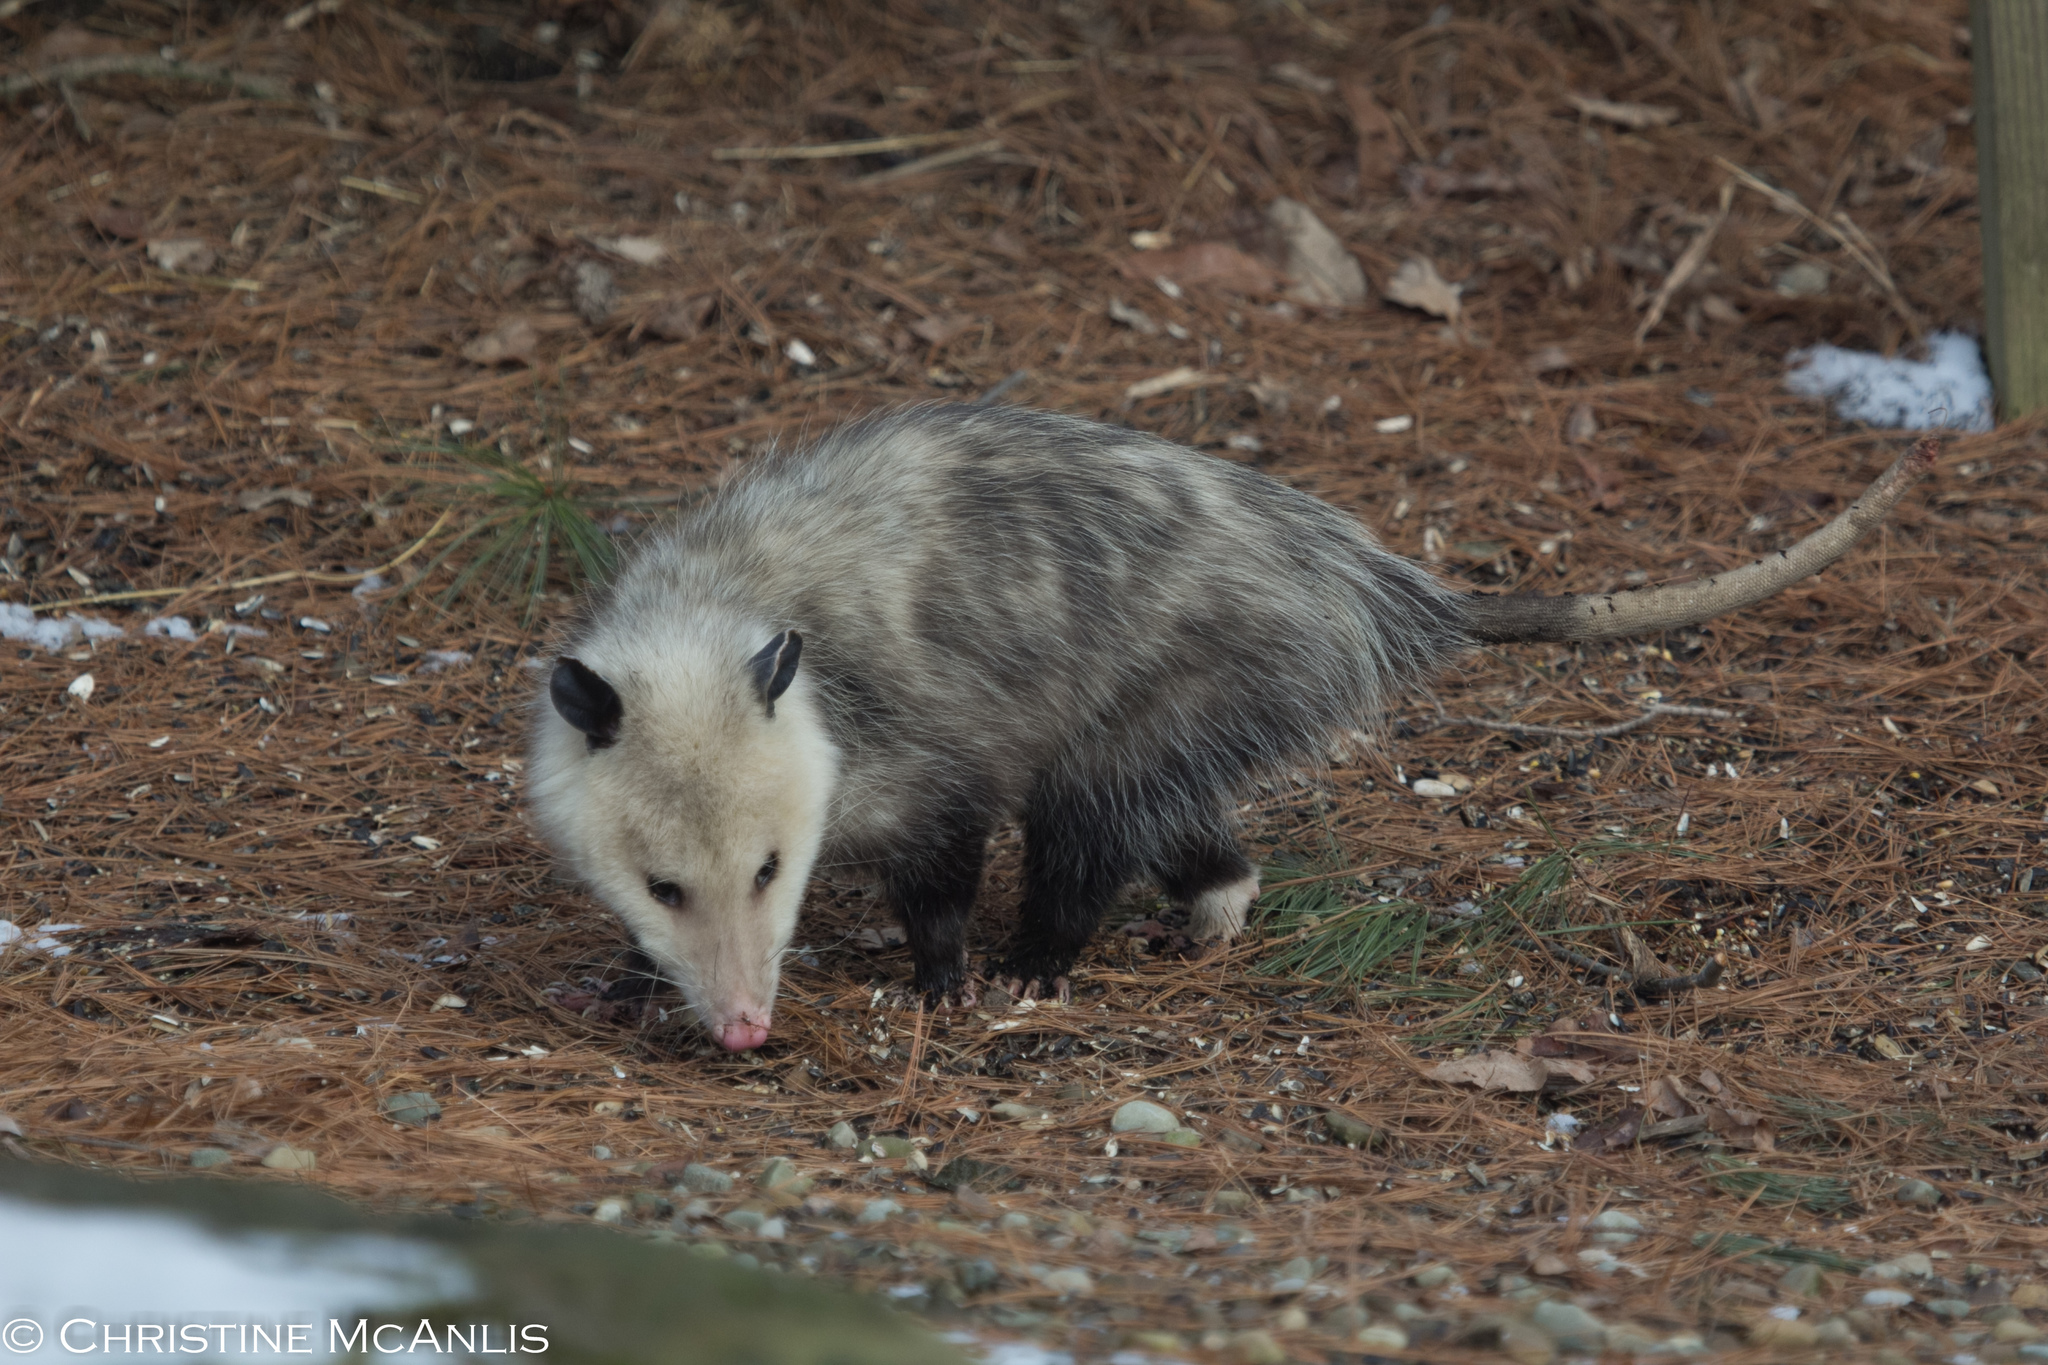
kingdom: Animalia
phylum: Chordata
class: Mammalia
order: Didelphimorphia
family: Didelphidae
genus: Didelphis
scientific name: Didelphis virginiana
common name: Virginia opossum
